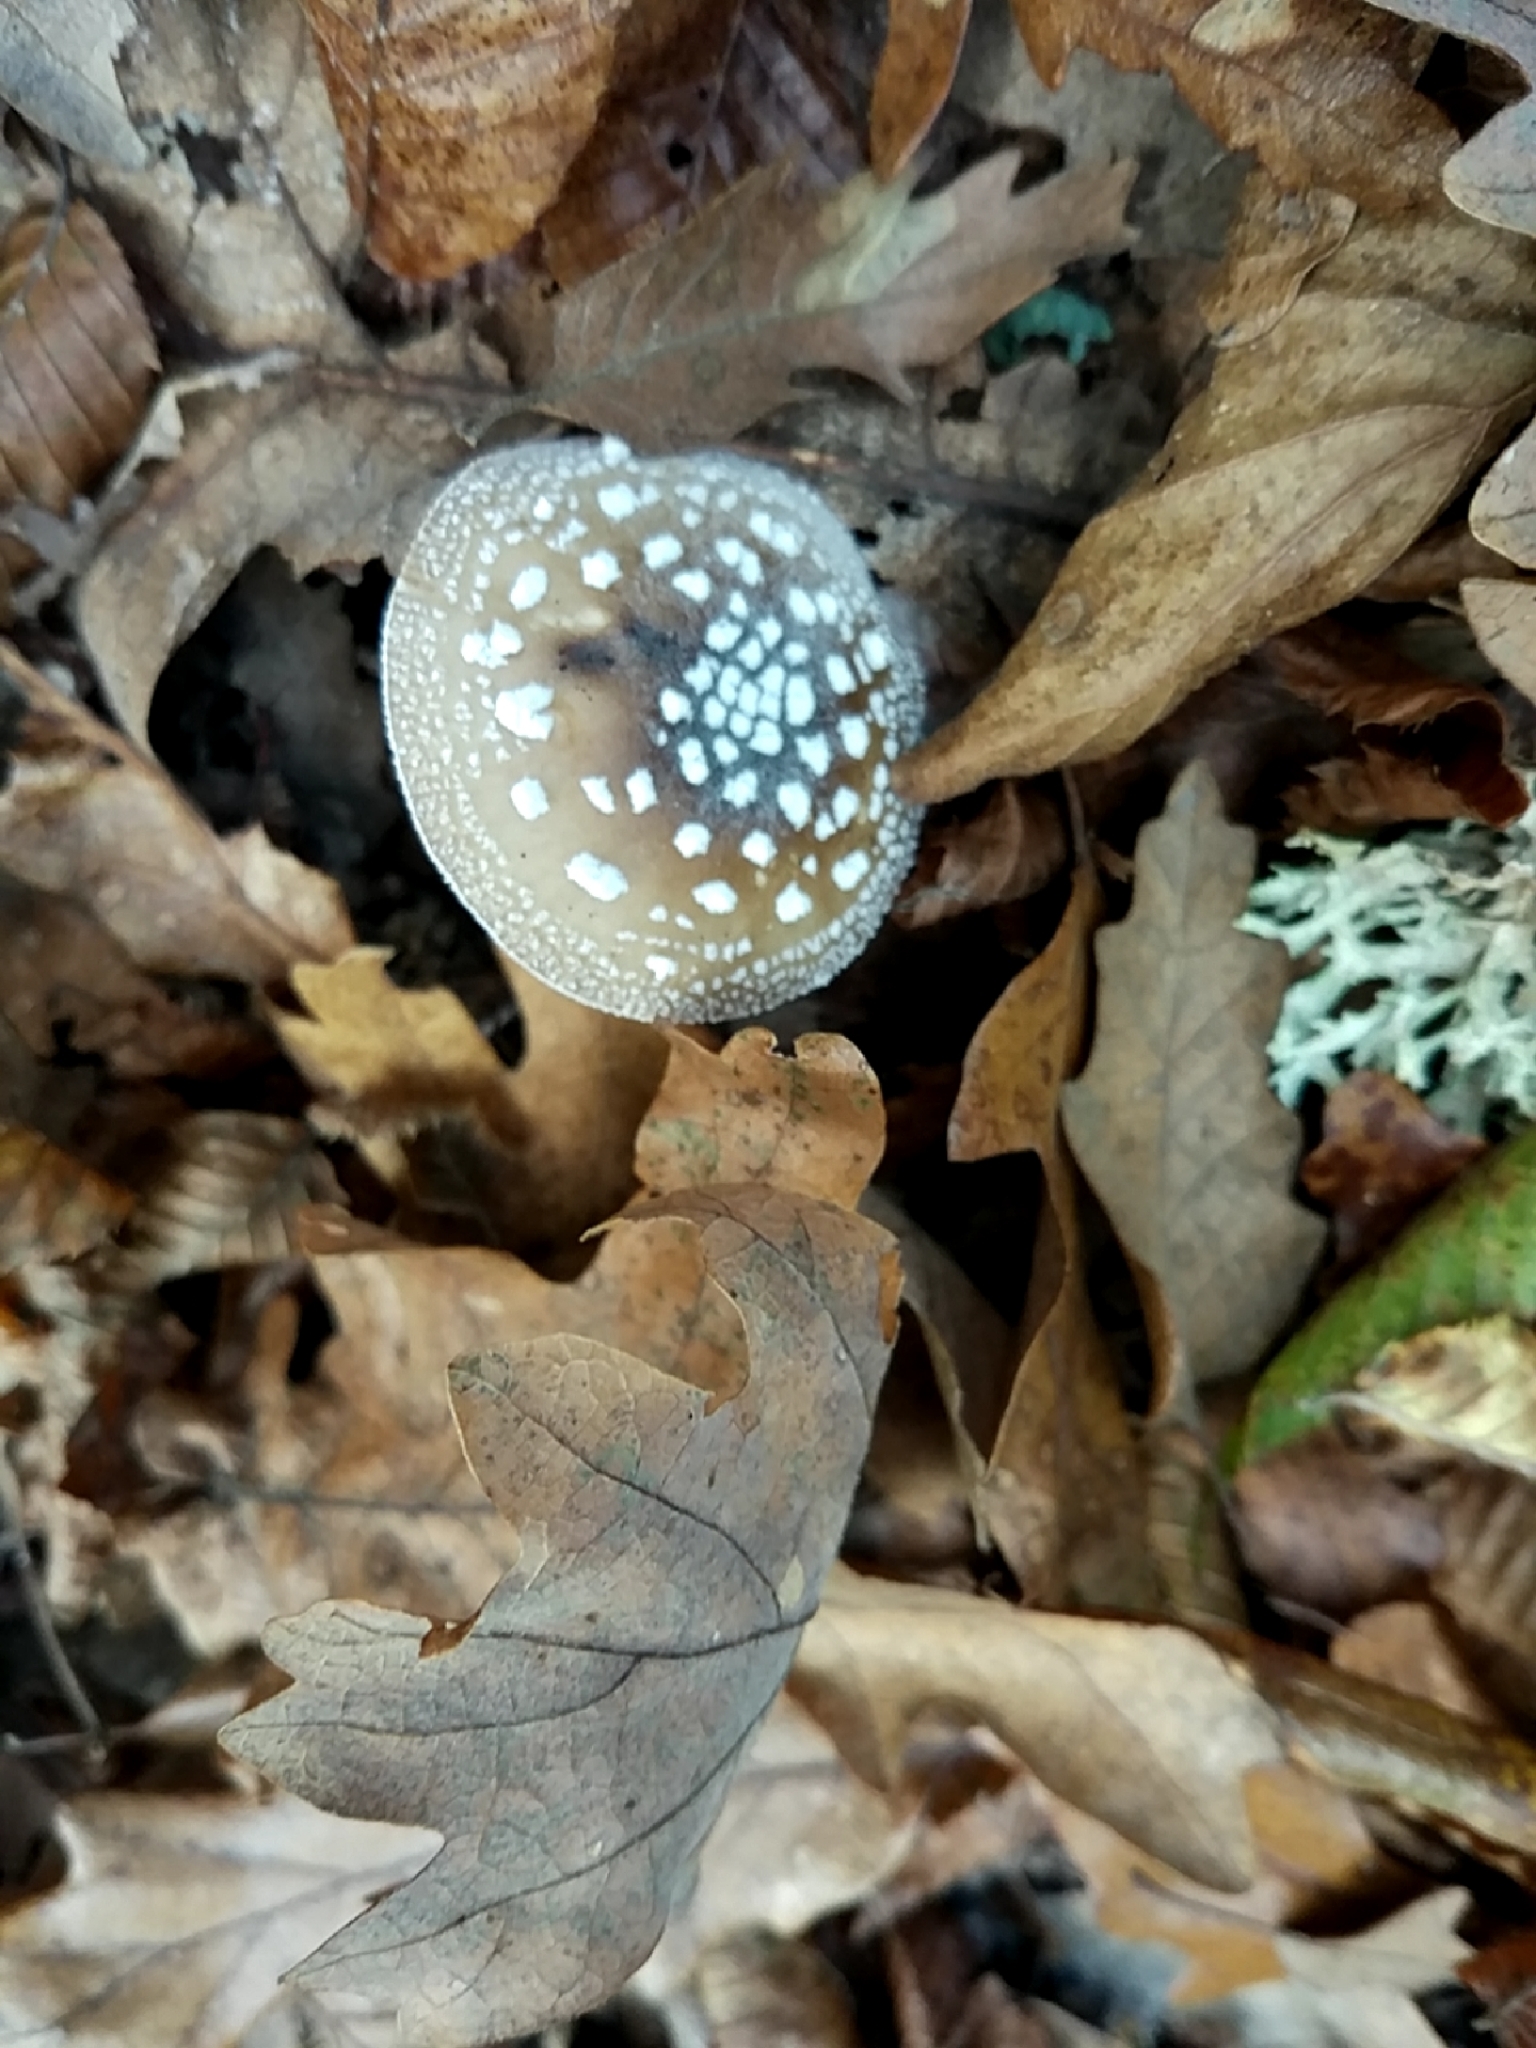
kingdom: Fungi
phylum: Basidiomycota
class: Agaricomycetes
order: Agaricales
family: Amanitaceae
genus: Amanita
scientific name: Amanita pantherina
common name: Panthercap
